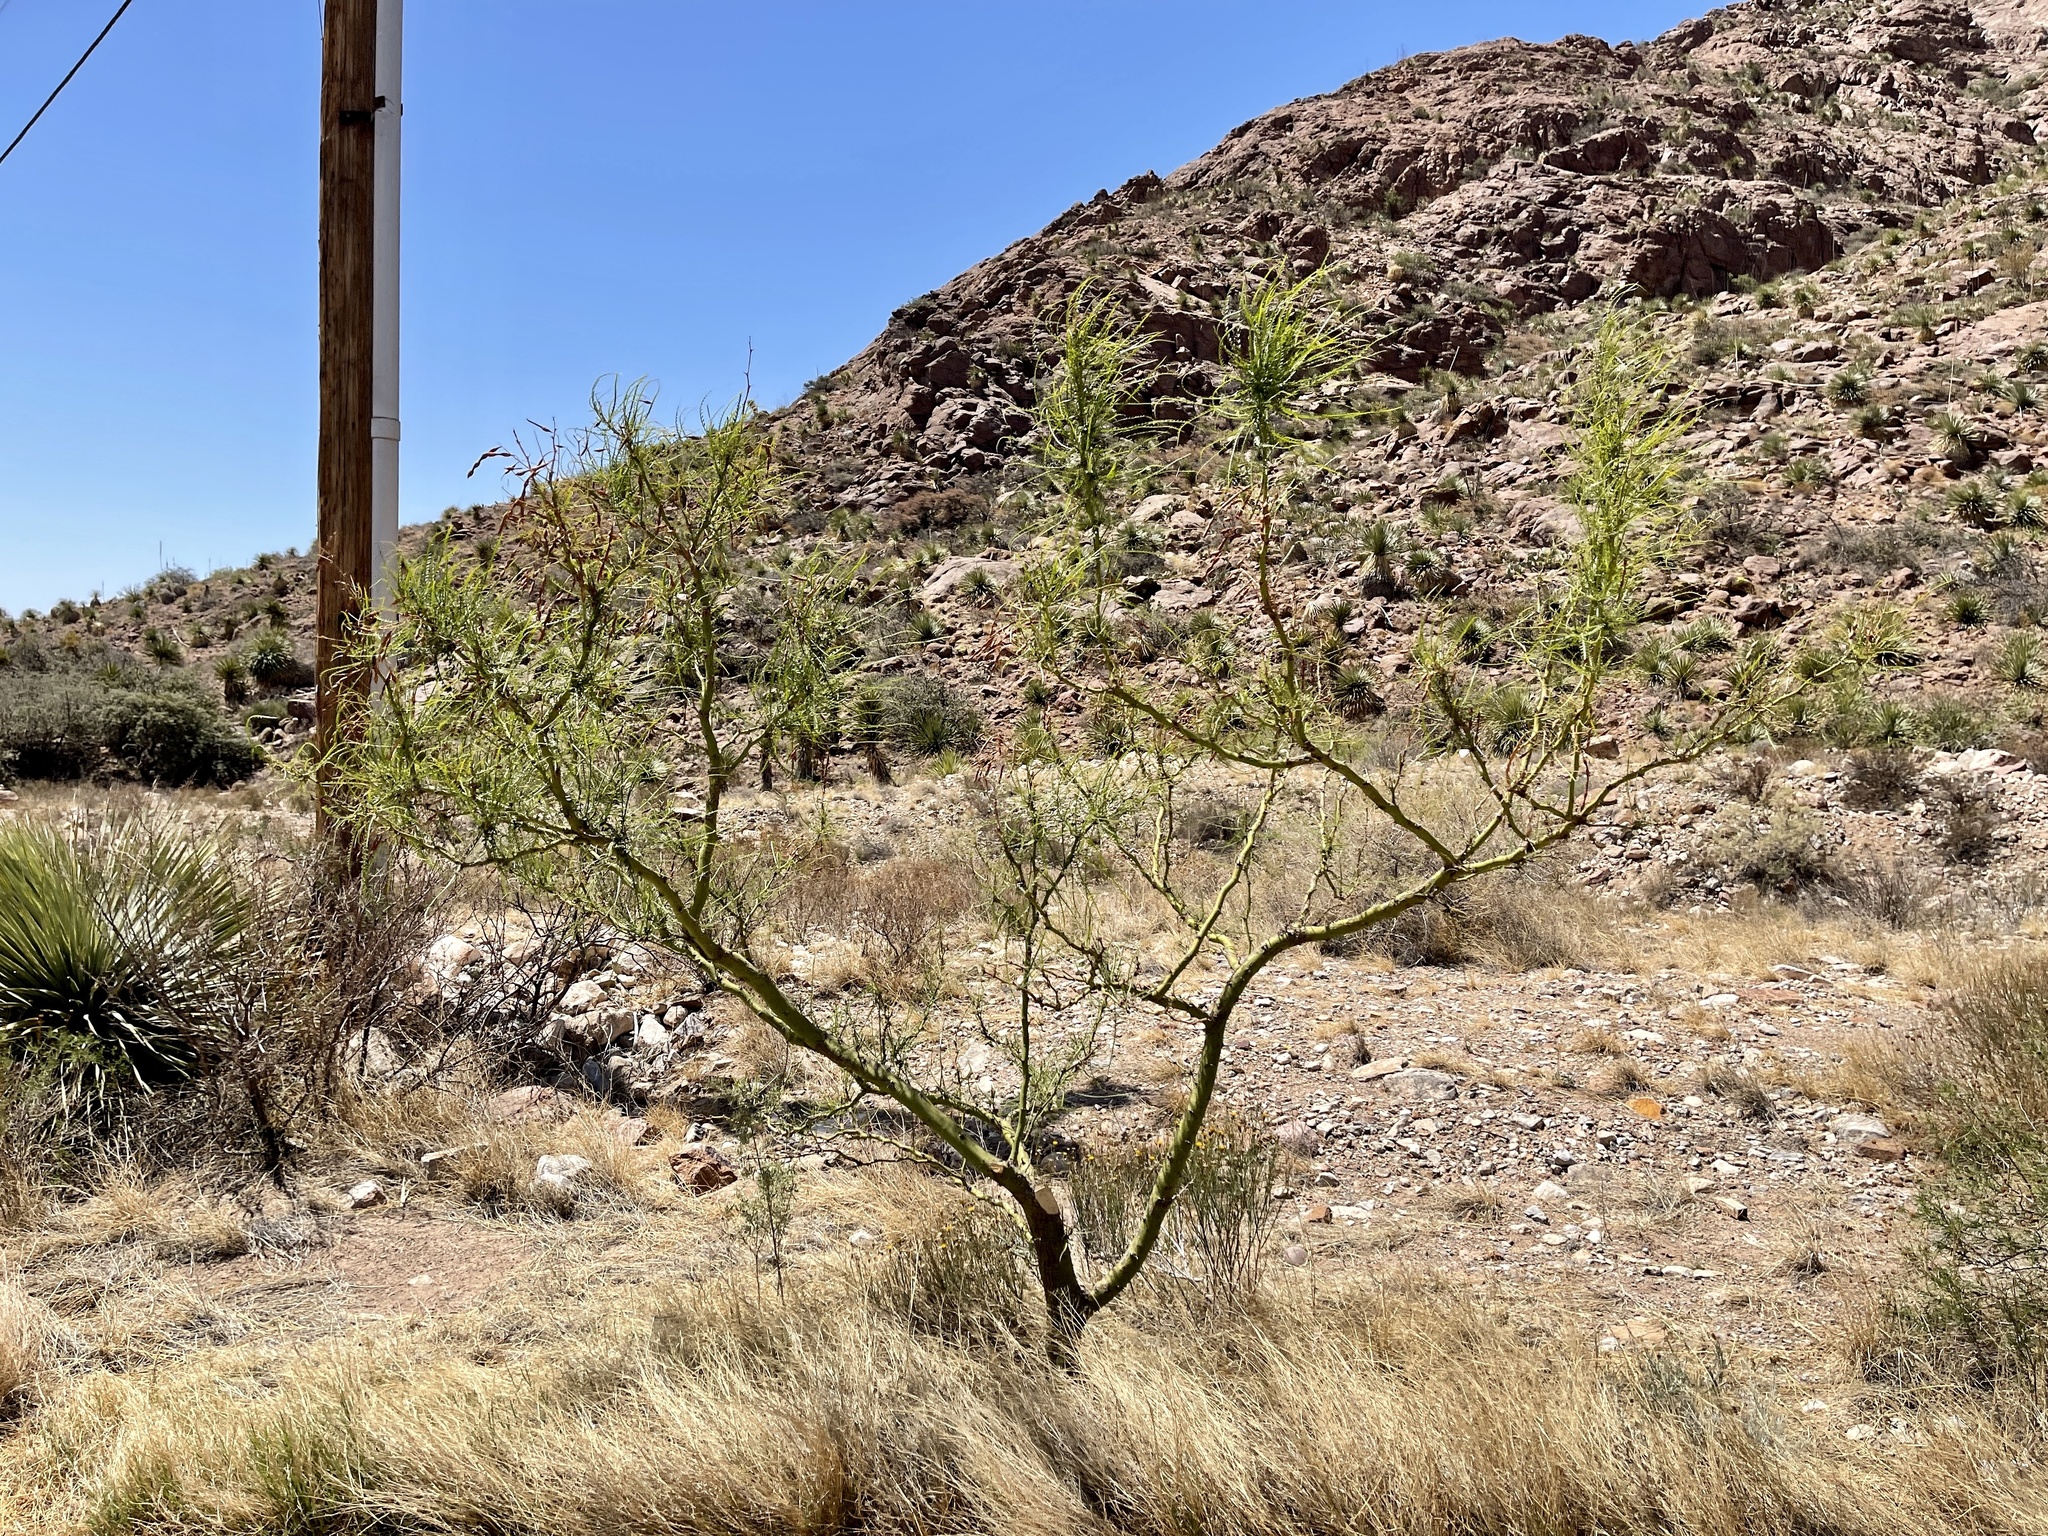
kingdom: Plantae
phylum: Tracheophyta
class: Magnoliopsida
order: Fabales
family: Fabaceae
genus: Parkinsonia
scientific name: Parkinsonia aculeata
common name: Jerusalem thorn
